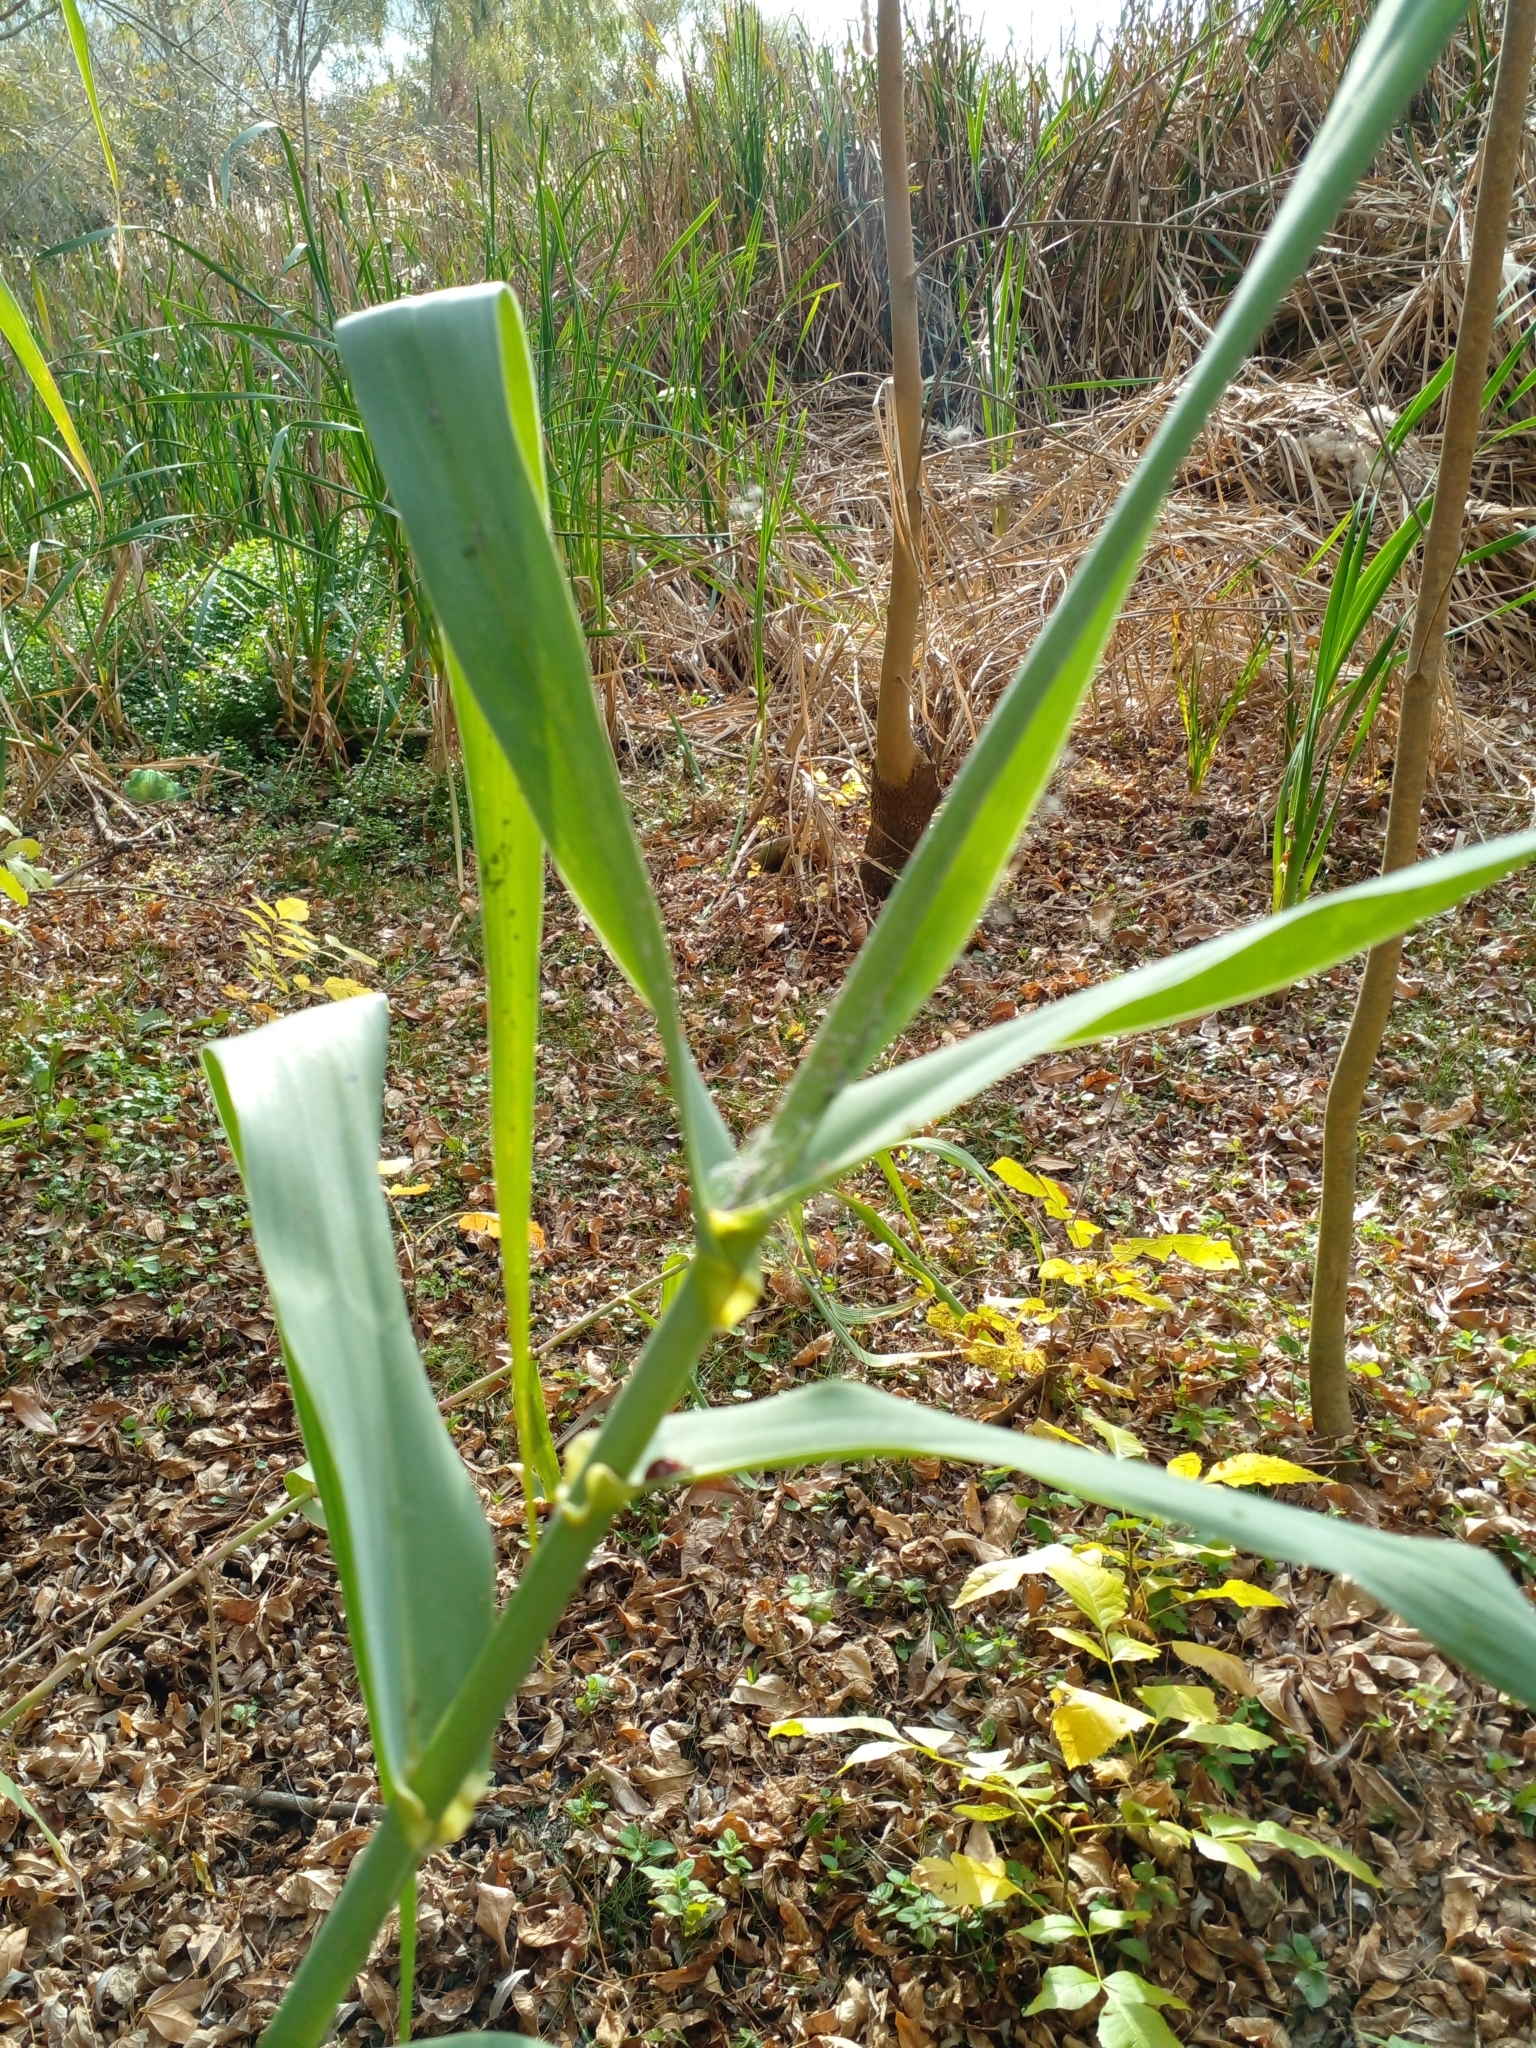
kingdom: Plantae
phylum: Tracheophyta
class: Liliopsida
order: Poales
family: Poaceae
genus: Arundo
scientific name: Arundo donax
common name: Giant reed
